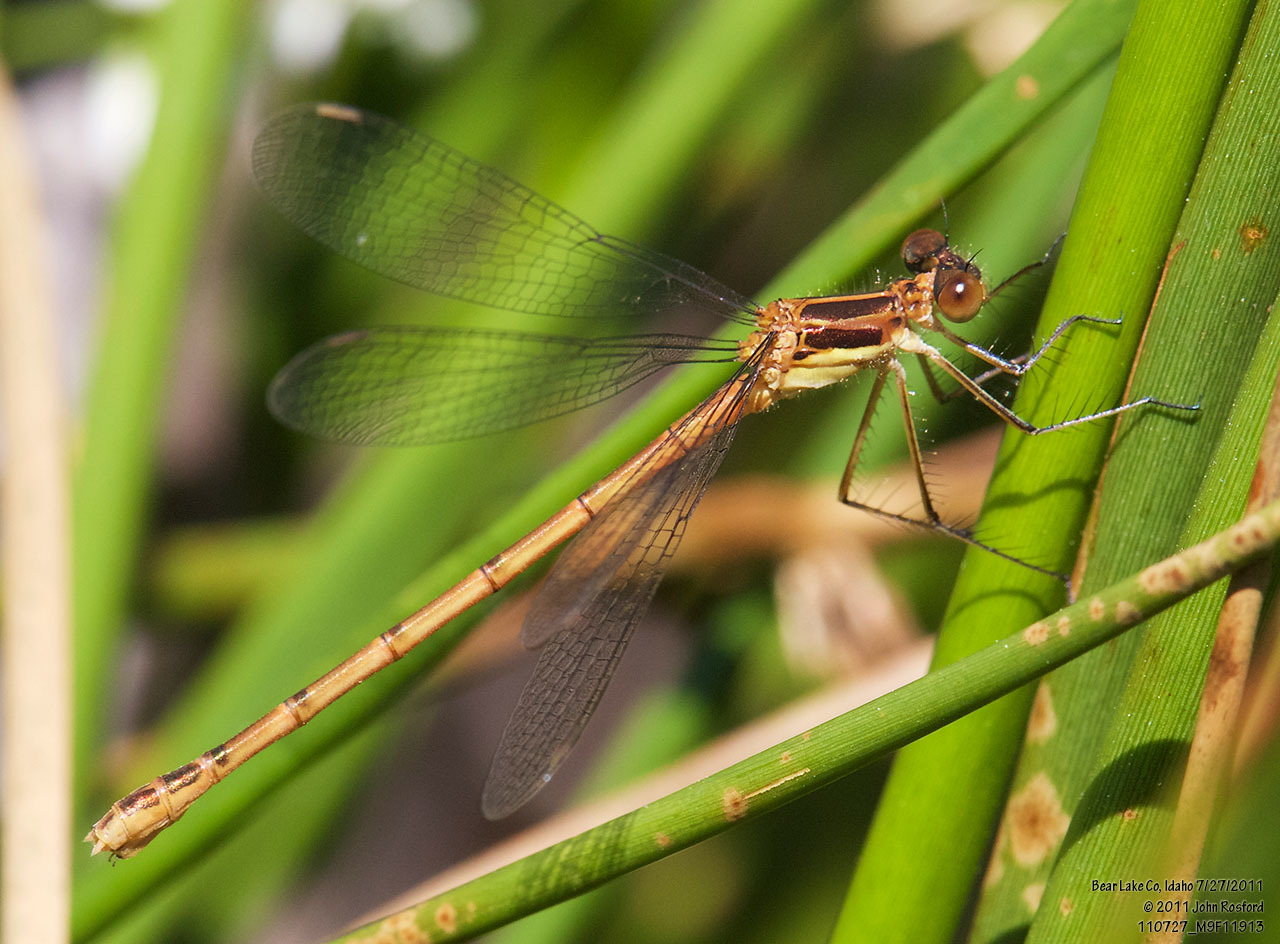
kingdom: Animalia
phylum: Arthropoda
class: Insecta
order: Odonata
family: Lestidae
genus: Lestes
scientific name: Lestes disjunctus
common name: Northern spreadwing
